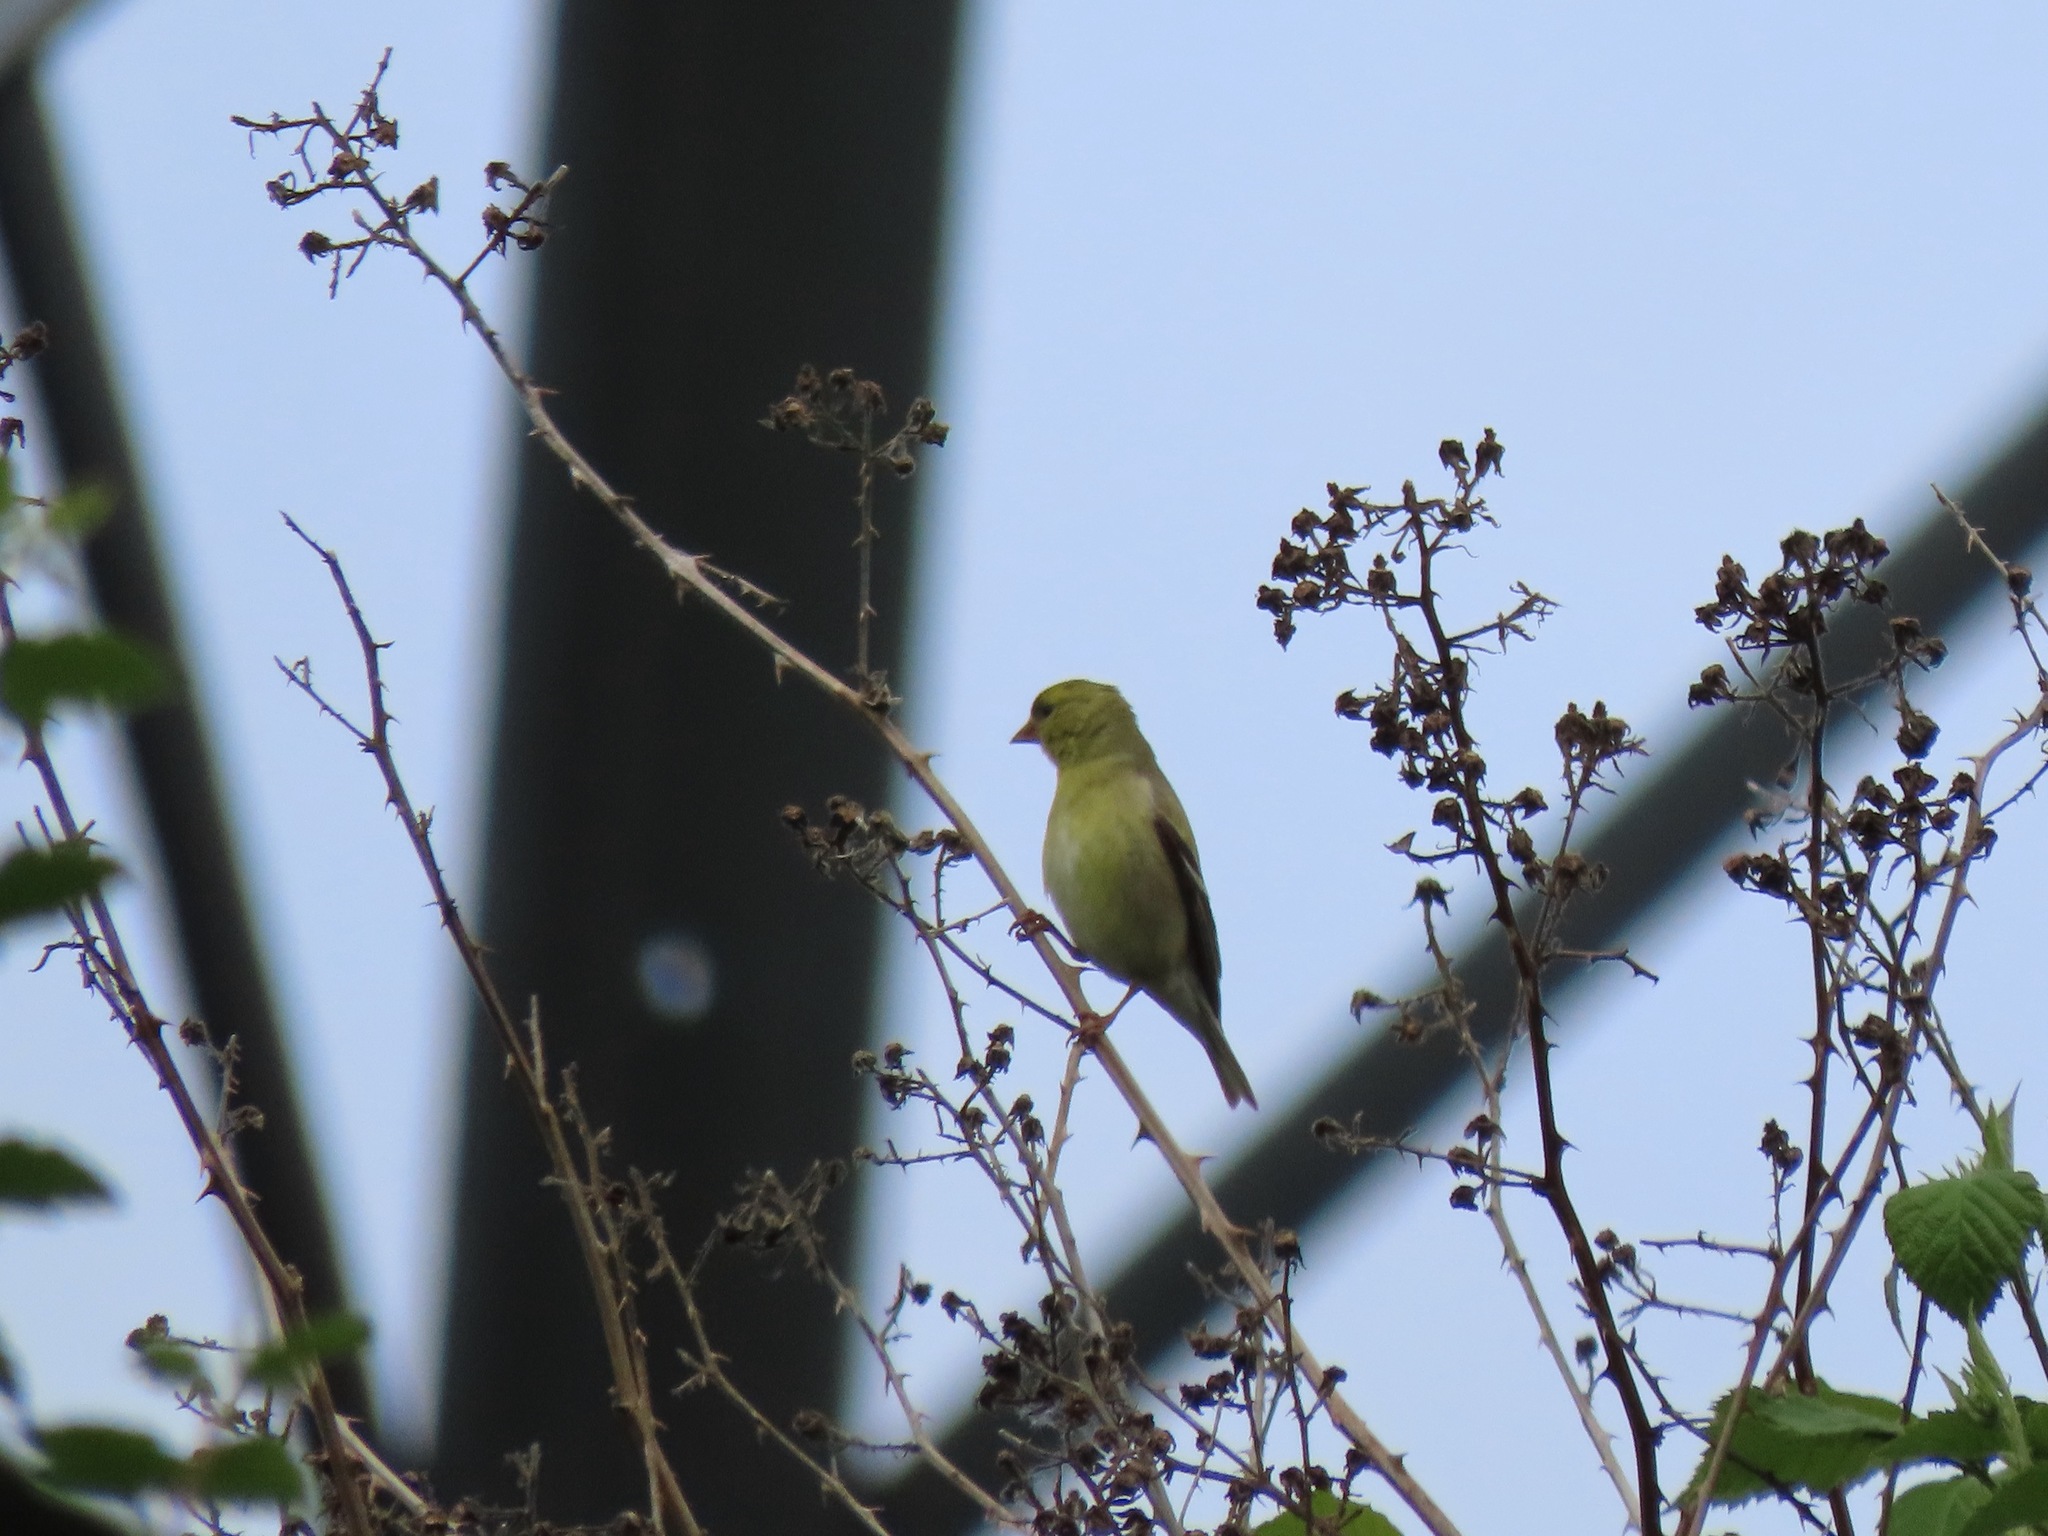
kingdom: Animalia
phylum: Chordata
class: Aves
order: Passeriformes
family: Fringillidae
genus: Spinus
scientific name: Spinus tristis
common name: American goldfinch
